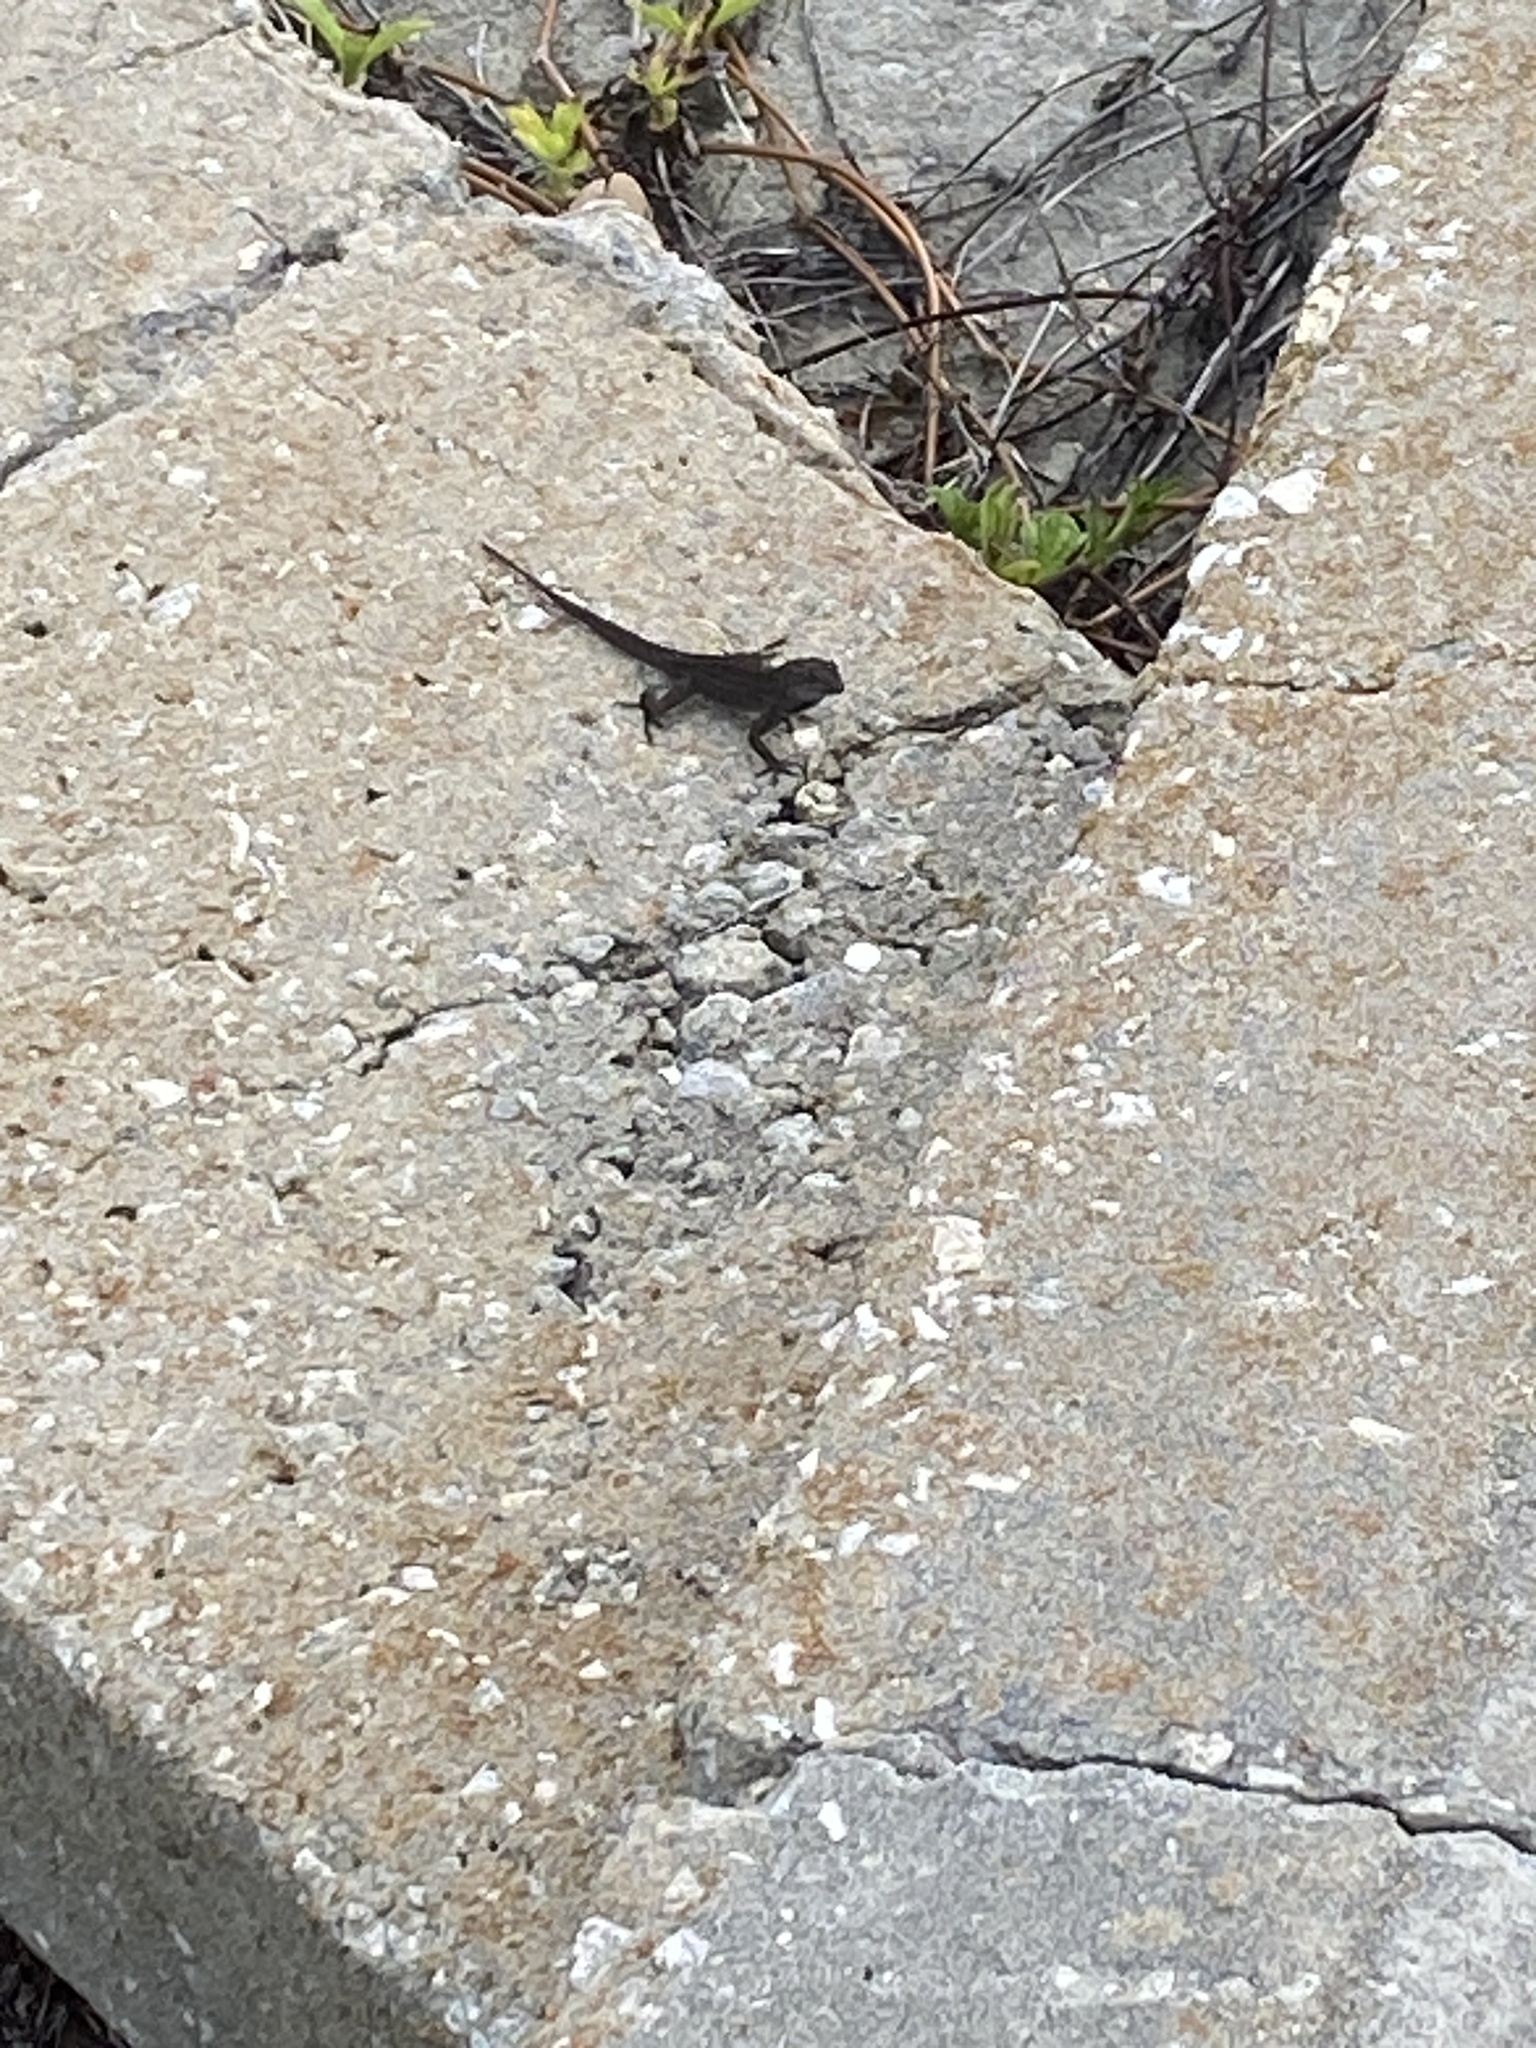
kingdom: Animalia
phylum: Chordata
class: Squamata
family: Dactyloidae
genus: Anolis
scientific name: Anolis sagrei
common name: Brown anole
